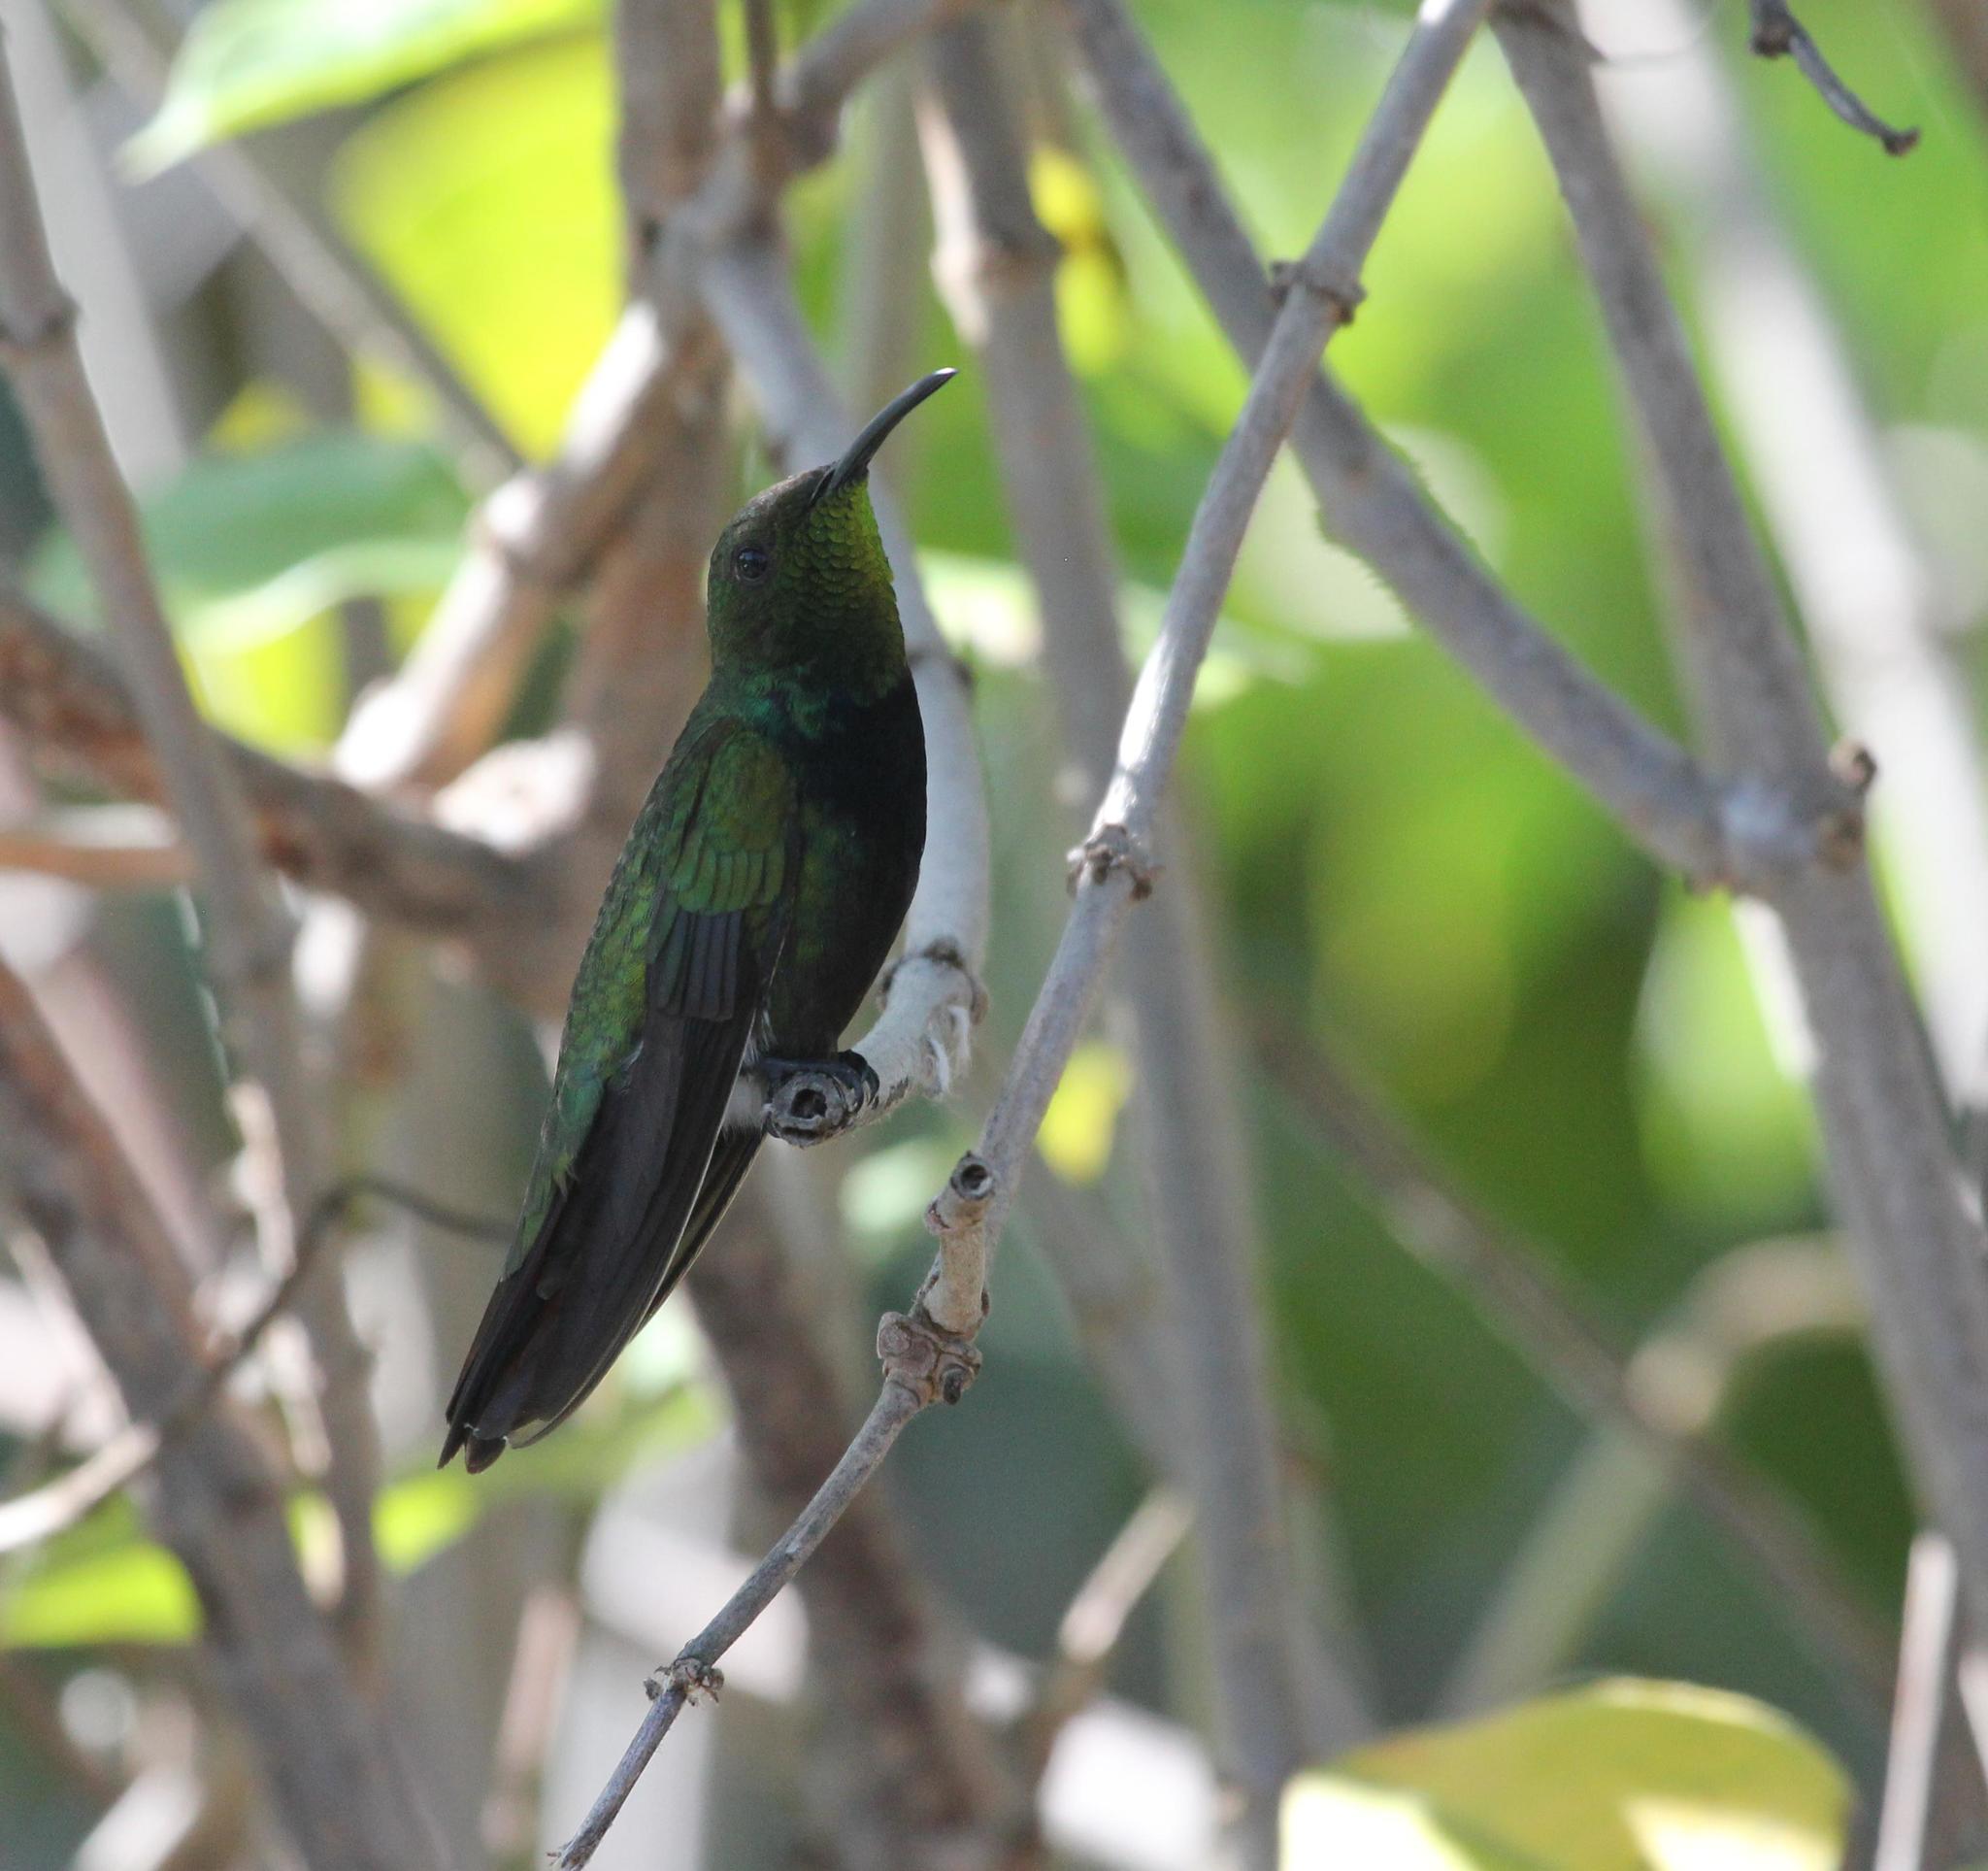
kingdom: Animalia
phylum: Chordata
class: Aves
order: Apodiformes
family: Trochilidae
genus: Anthracothorax
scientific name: Anthracothorax dominicus
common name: Antillean mango
